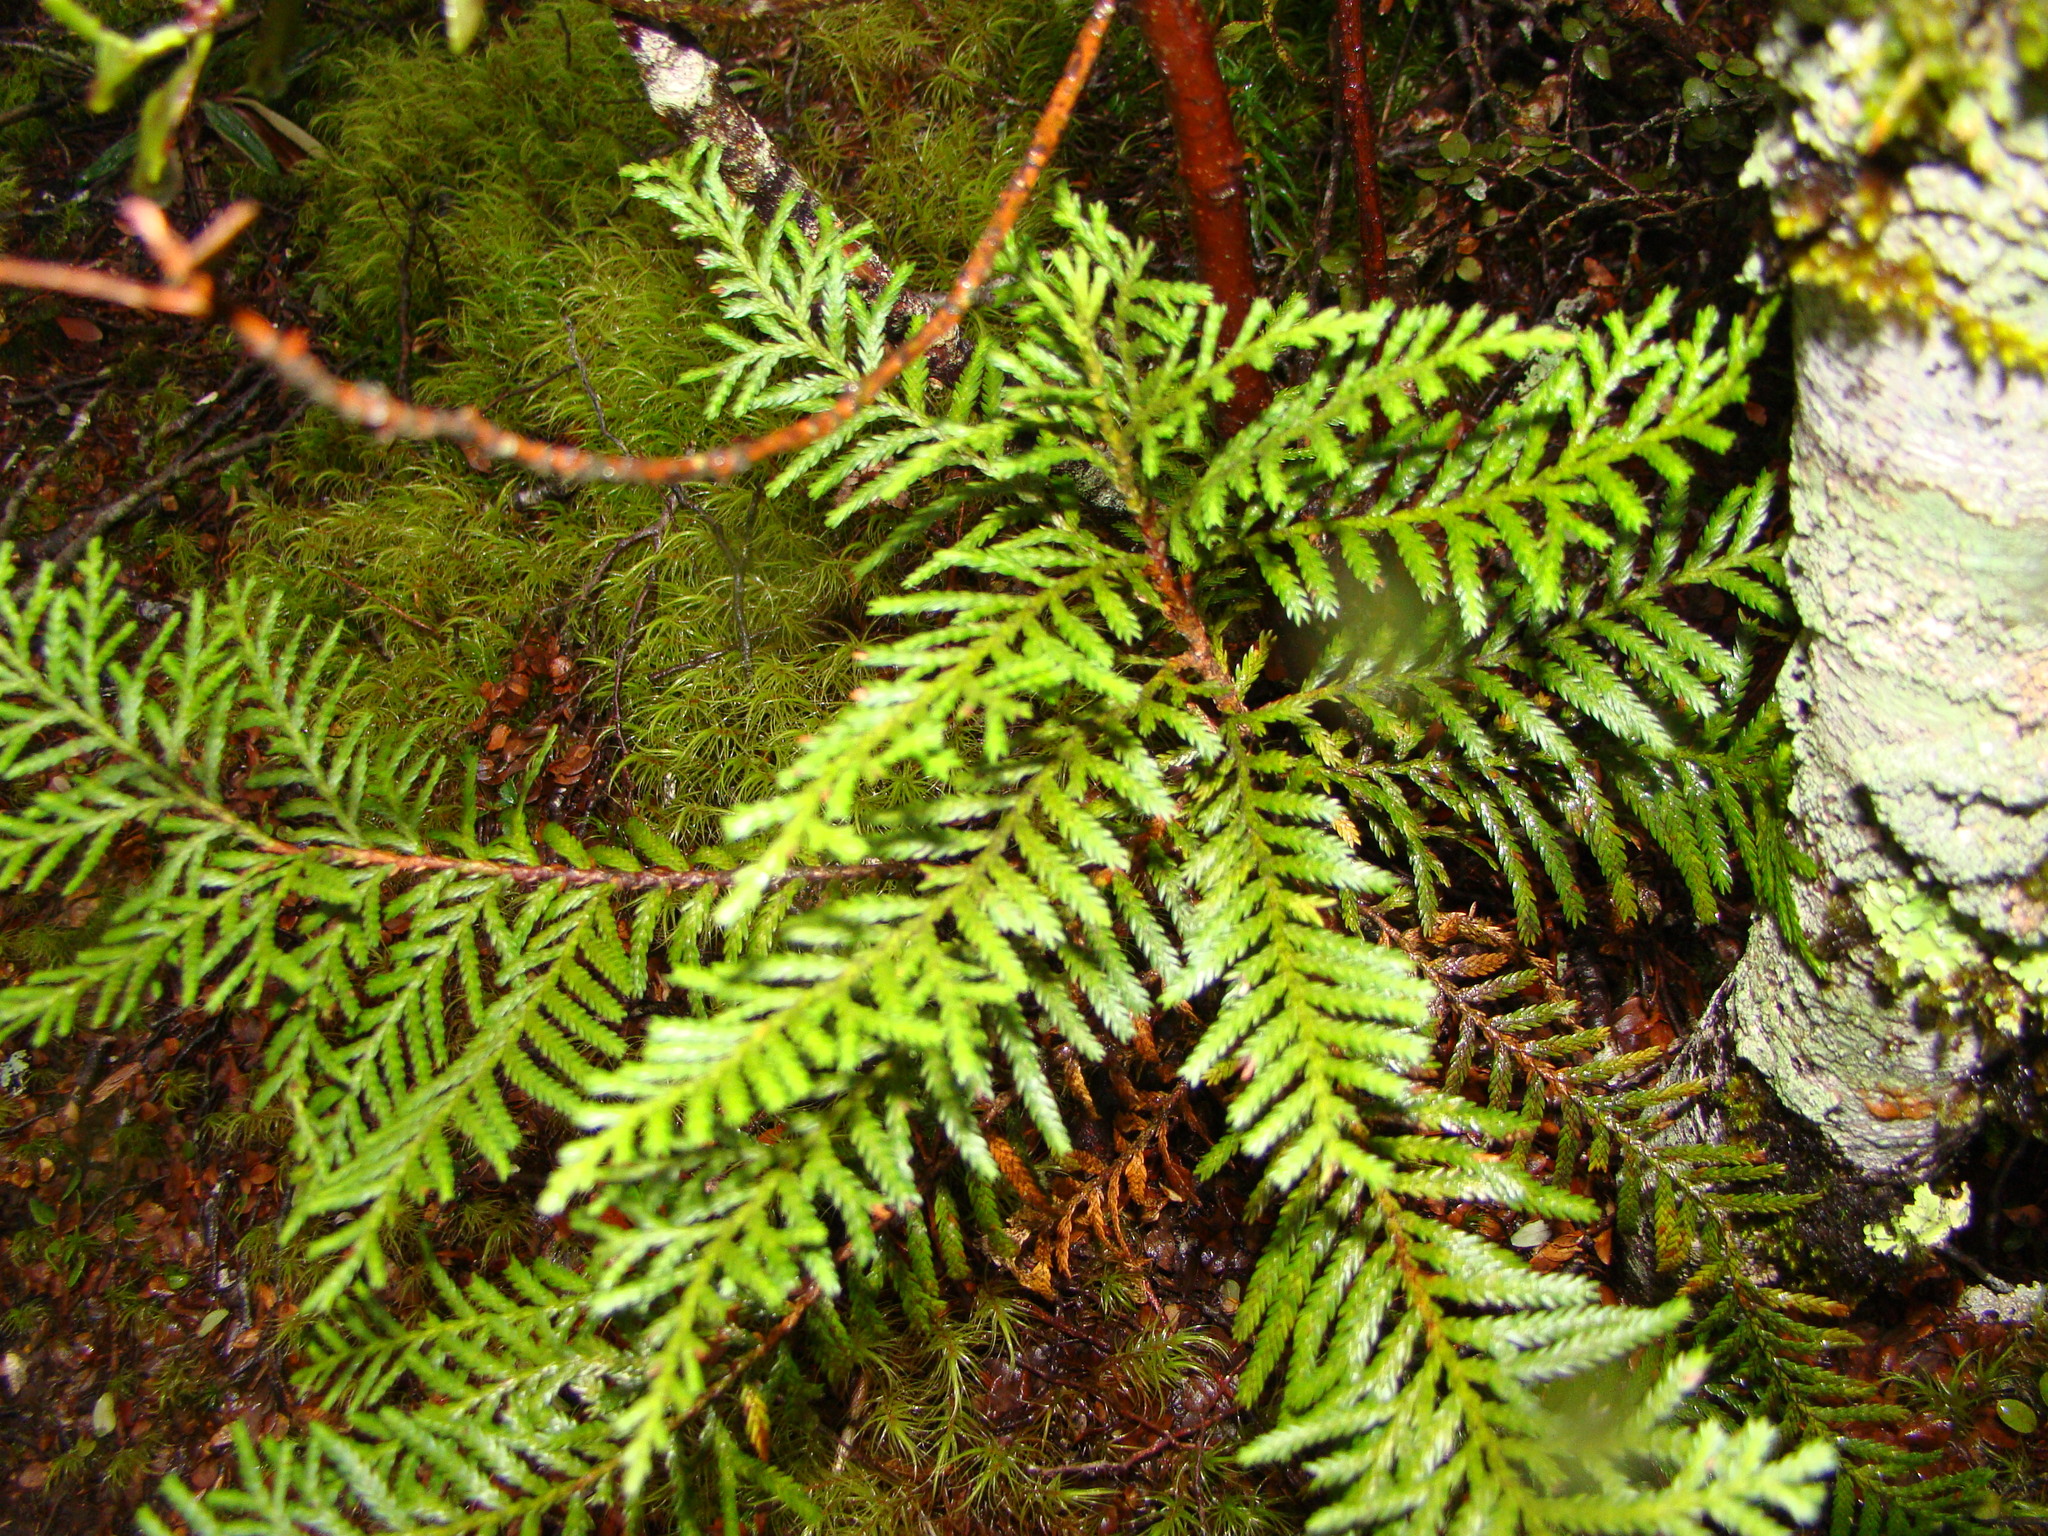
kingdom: Plantae
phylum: Tracheophyta
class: Pinopsida
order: Pinales
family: Cupressaceae
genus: Libocedrus
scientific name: Libocedrus bidwillii
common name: Cedar
